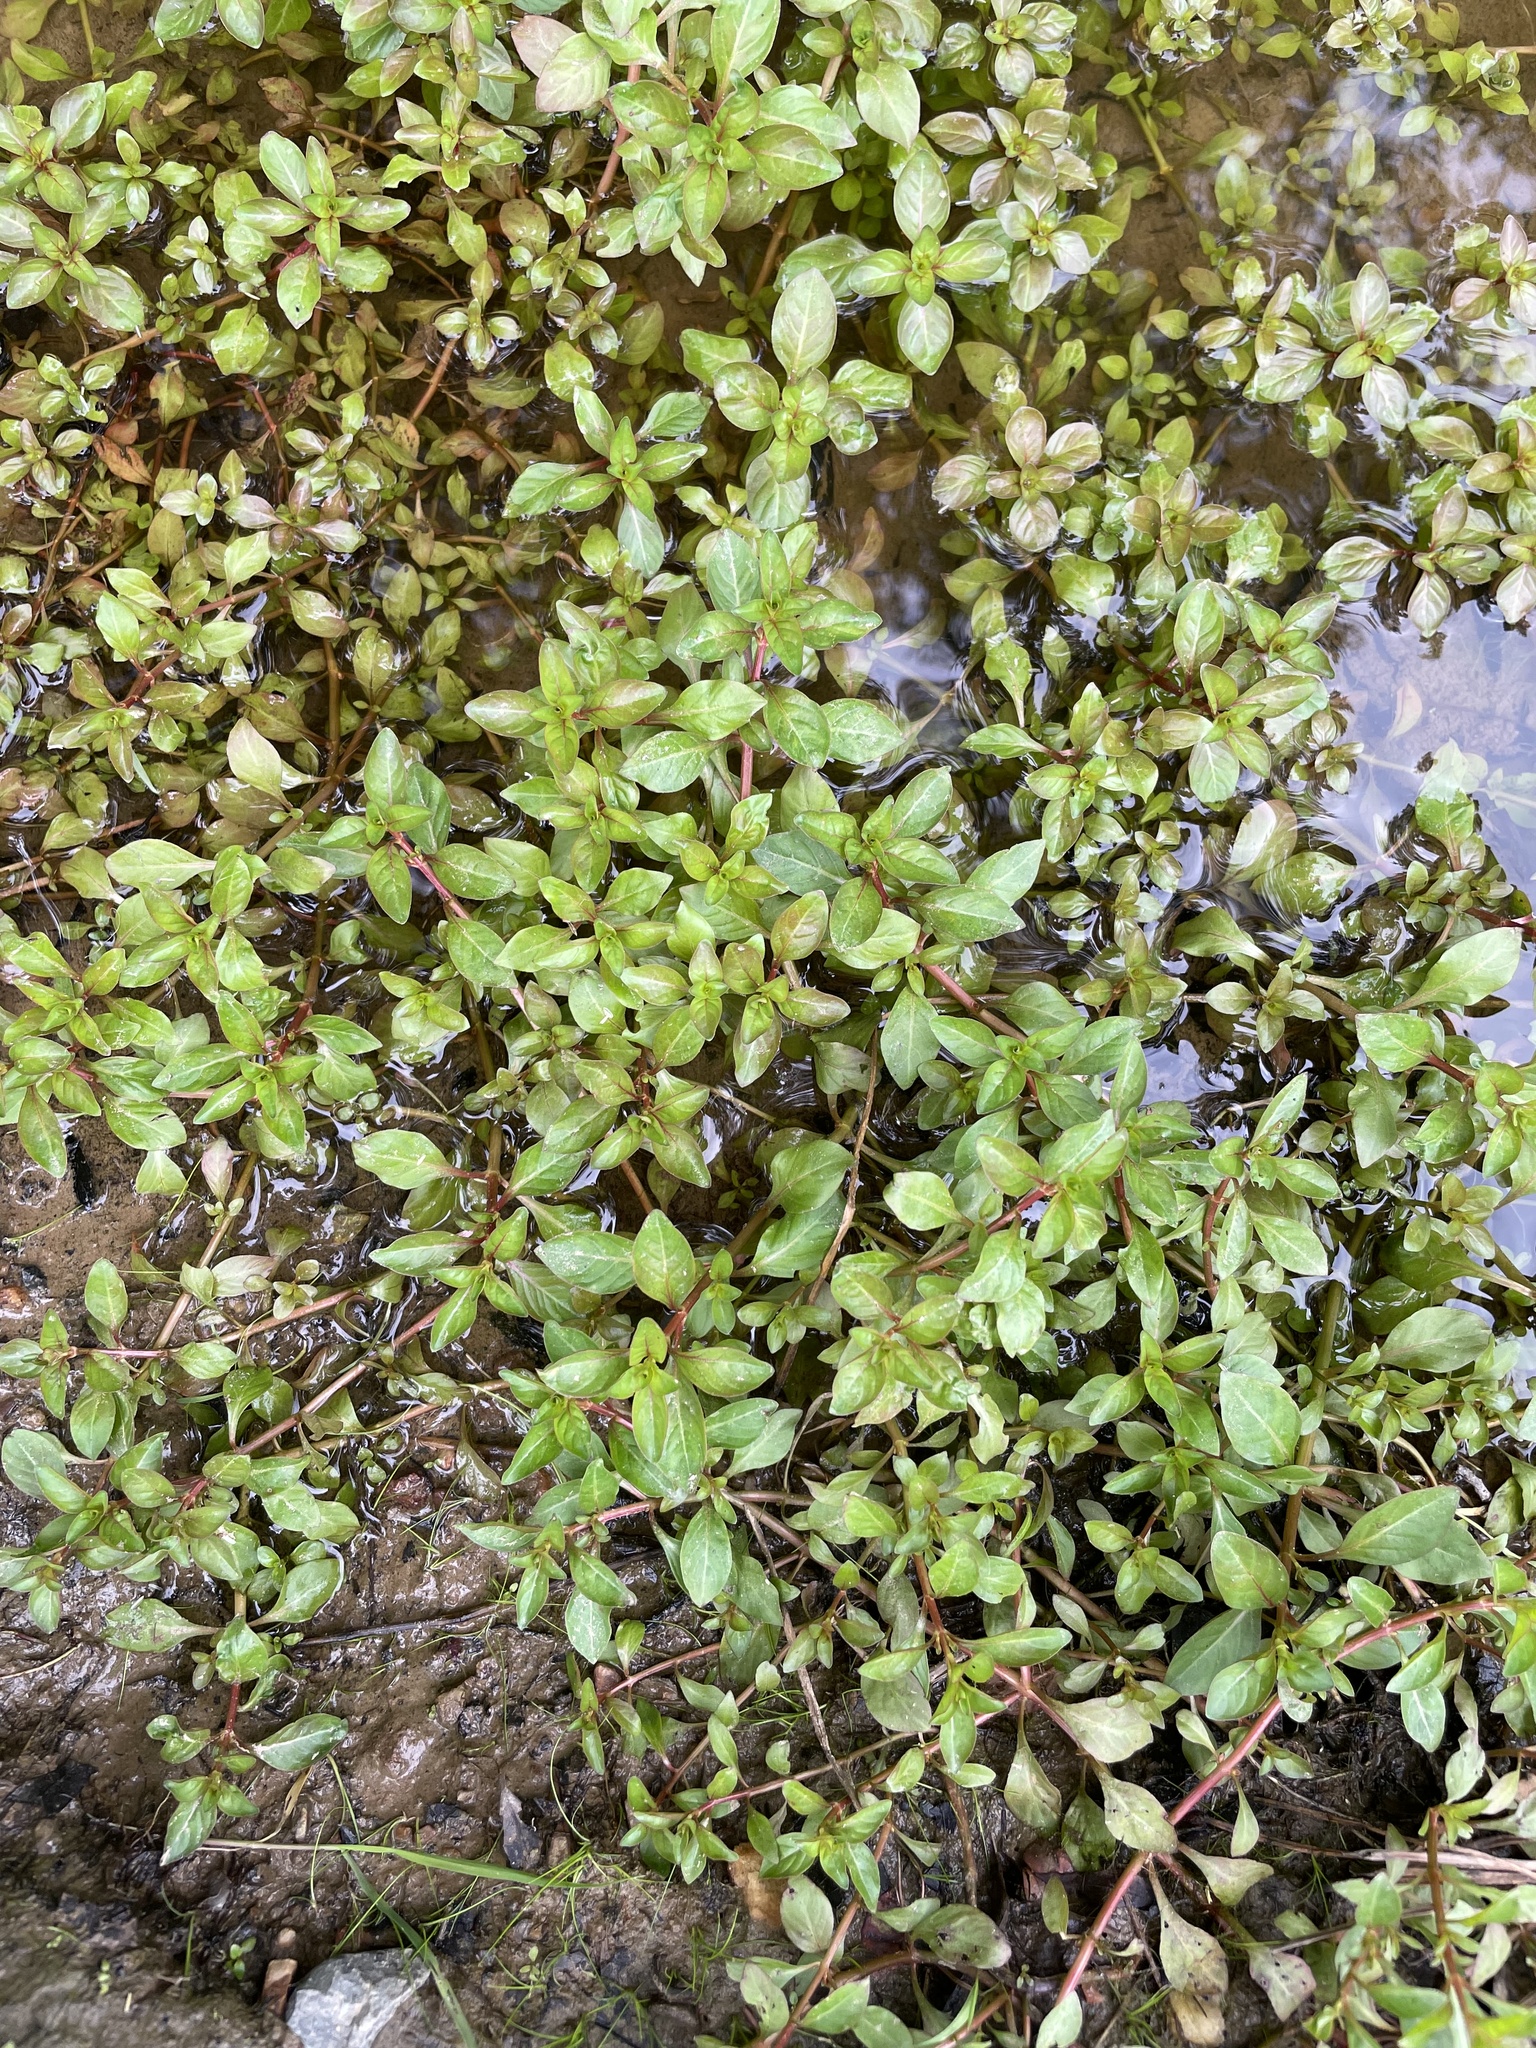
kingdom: Plantae
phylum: Tracheophyta
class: Magnoliopsida
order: Myrtales
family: Onagraceae
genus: Ludwigia
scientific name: Ludwigia palustris
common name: Hampshire-purslane
